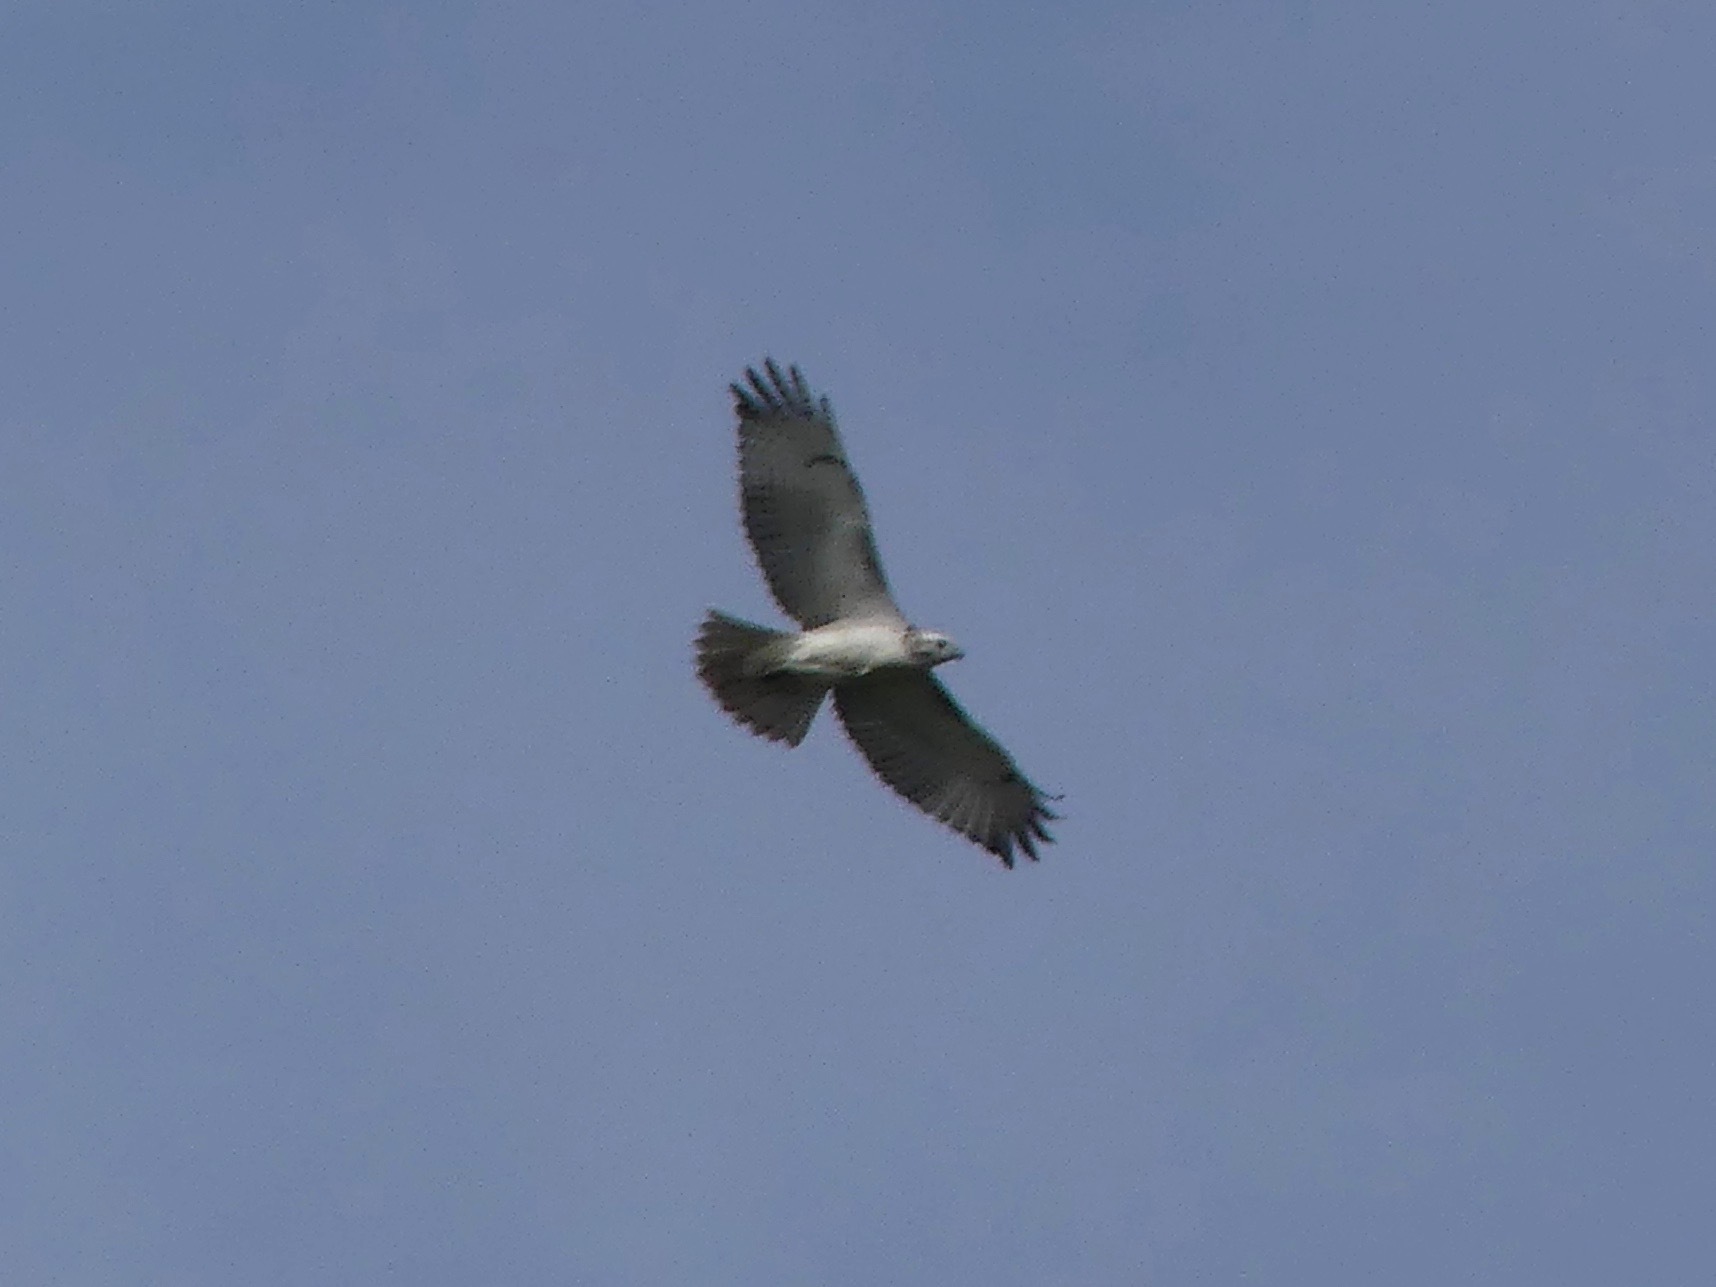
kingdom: Animalia
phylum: Chordata
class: Aves
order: Accipitriformes
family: Accipitridae
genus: Buteo
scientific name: Buteo jamaicensis
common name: Red-tailed hawk
